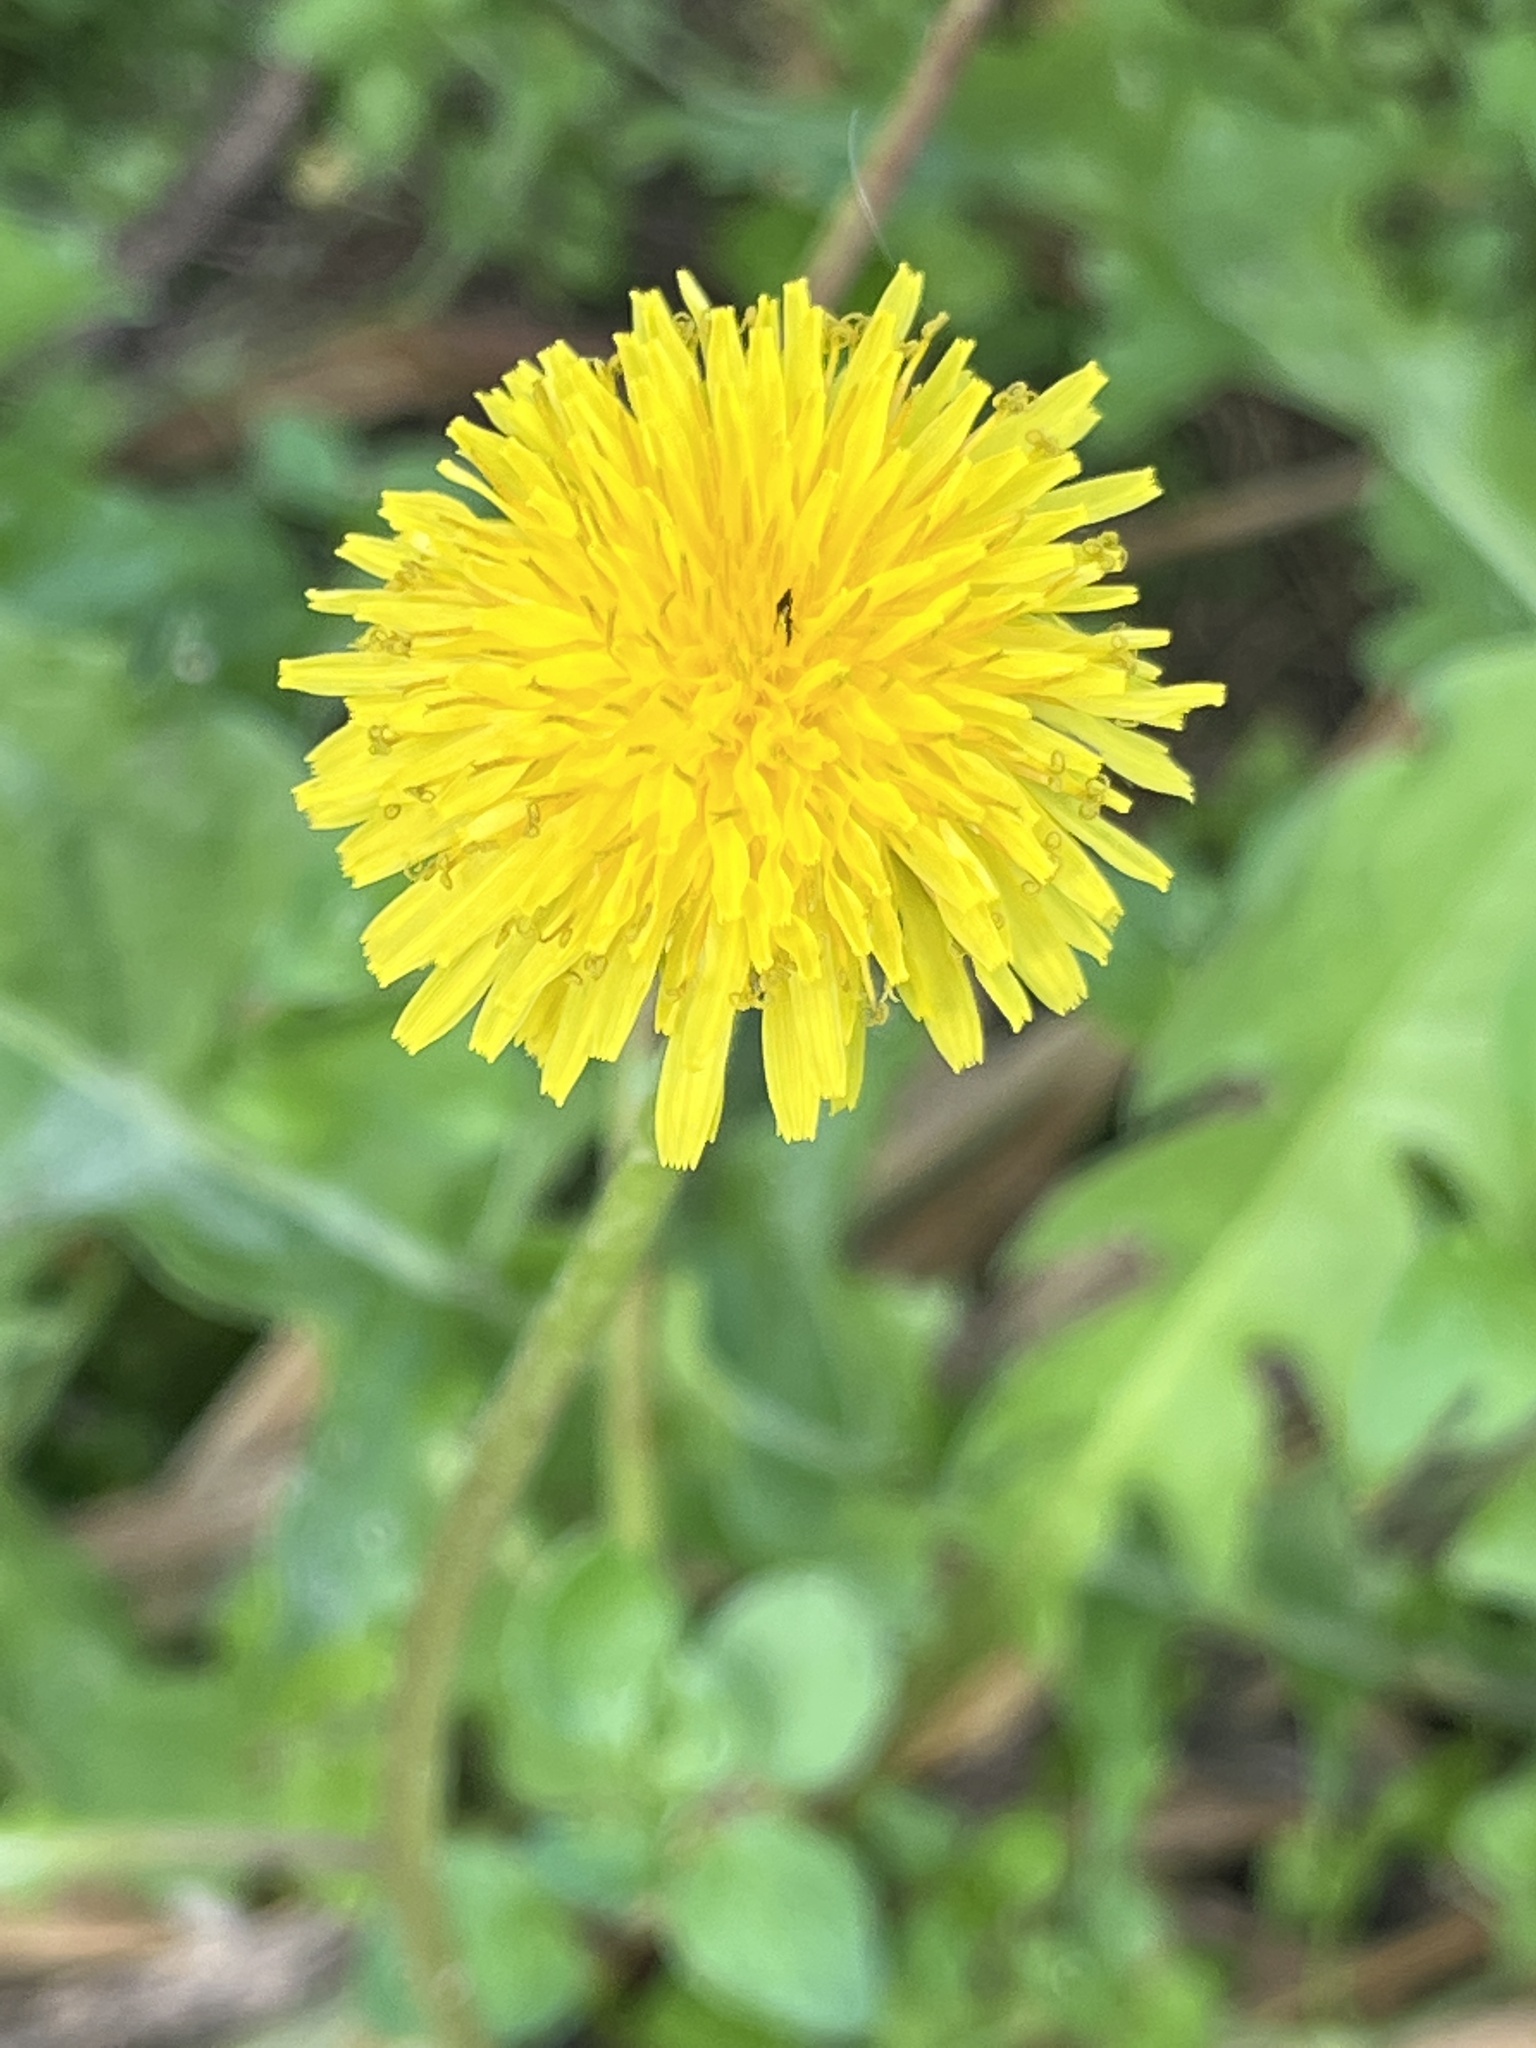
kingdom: Plantae
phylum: Tracheophyta
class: Magnoliopsida
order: Asterales
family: Asteraceae
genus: Taraxacum
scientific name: Taraxacum officinale
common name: Common dandelion
